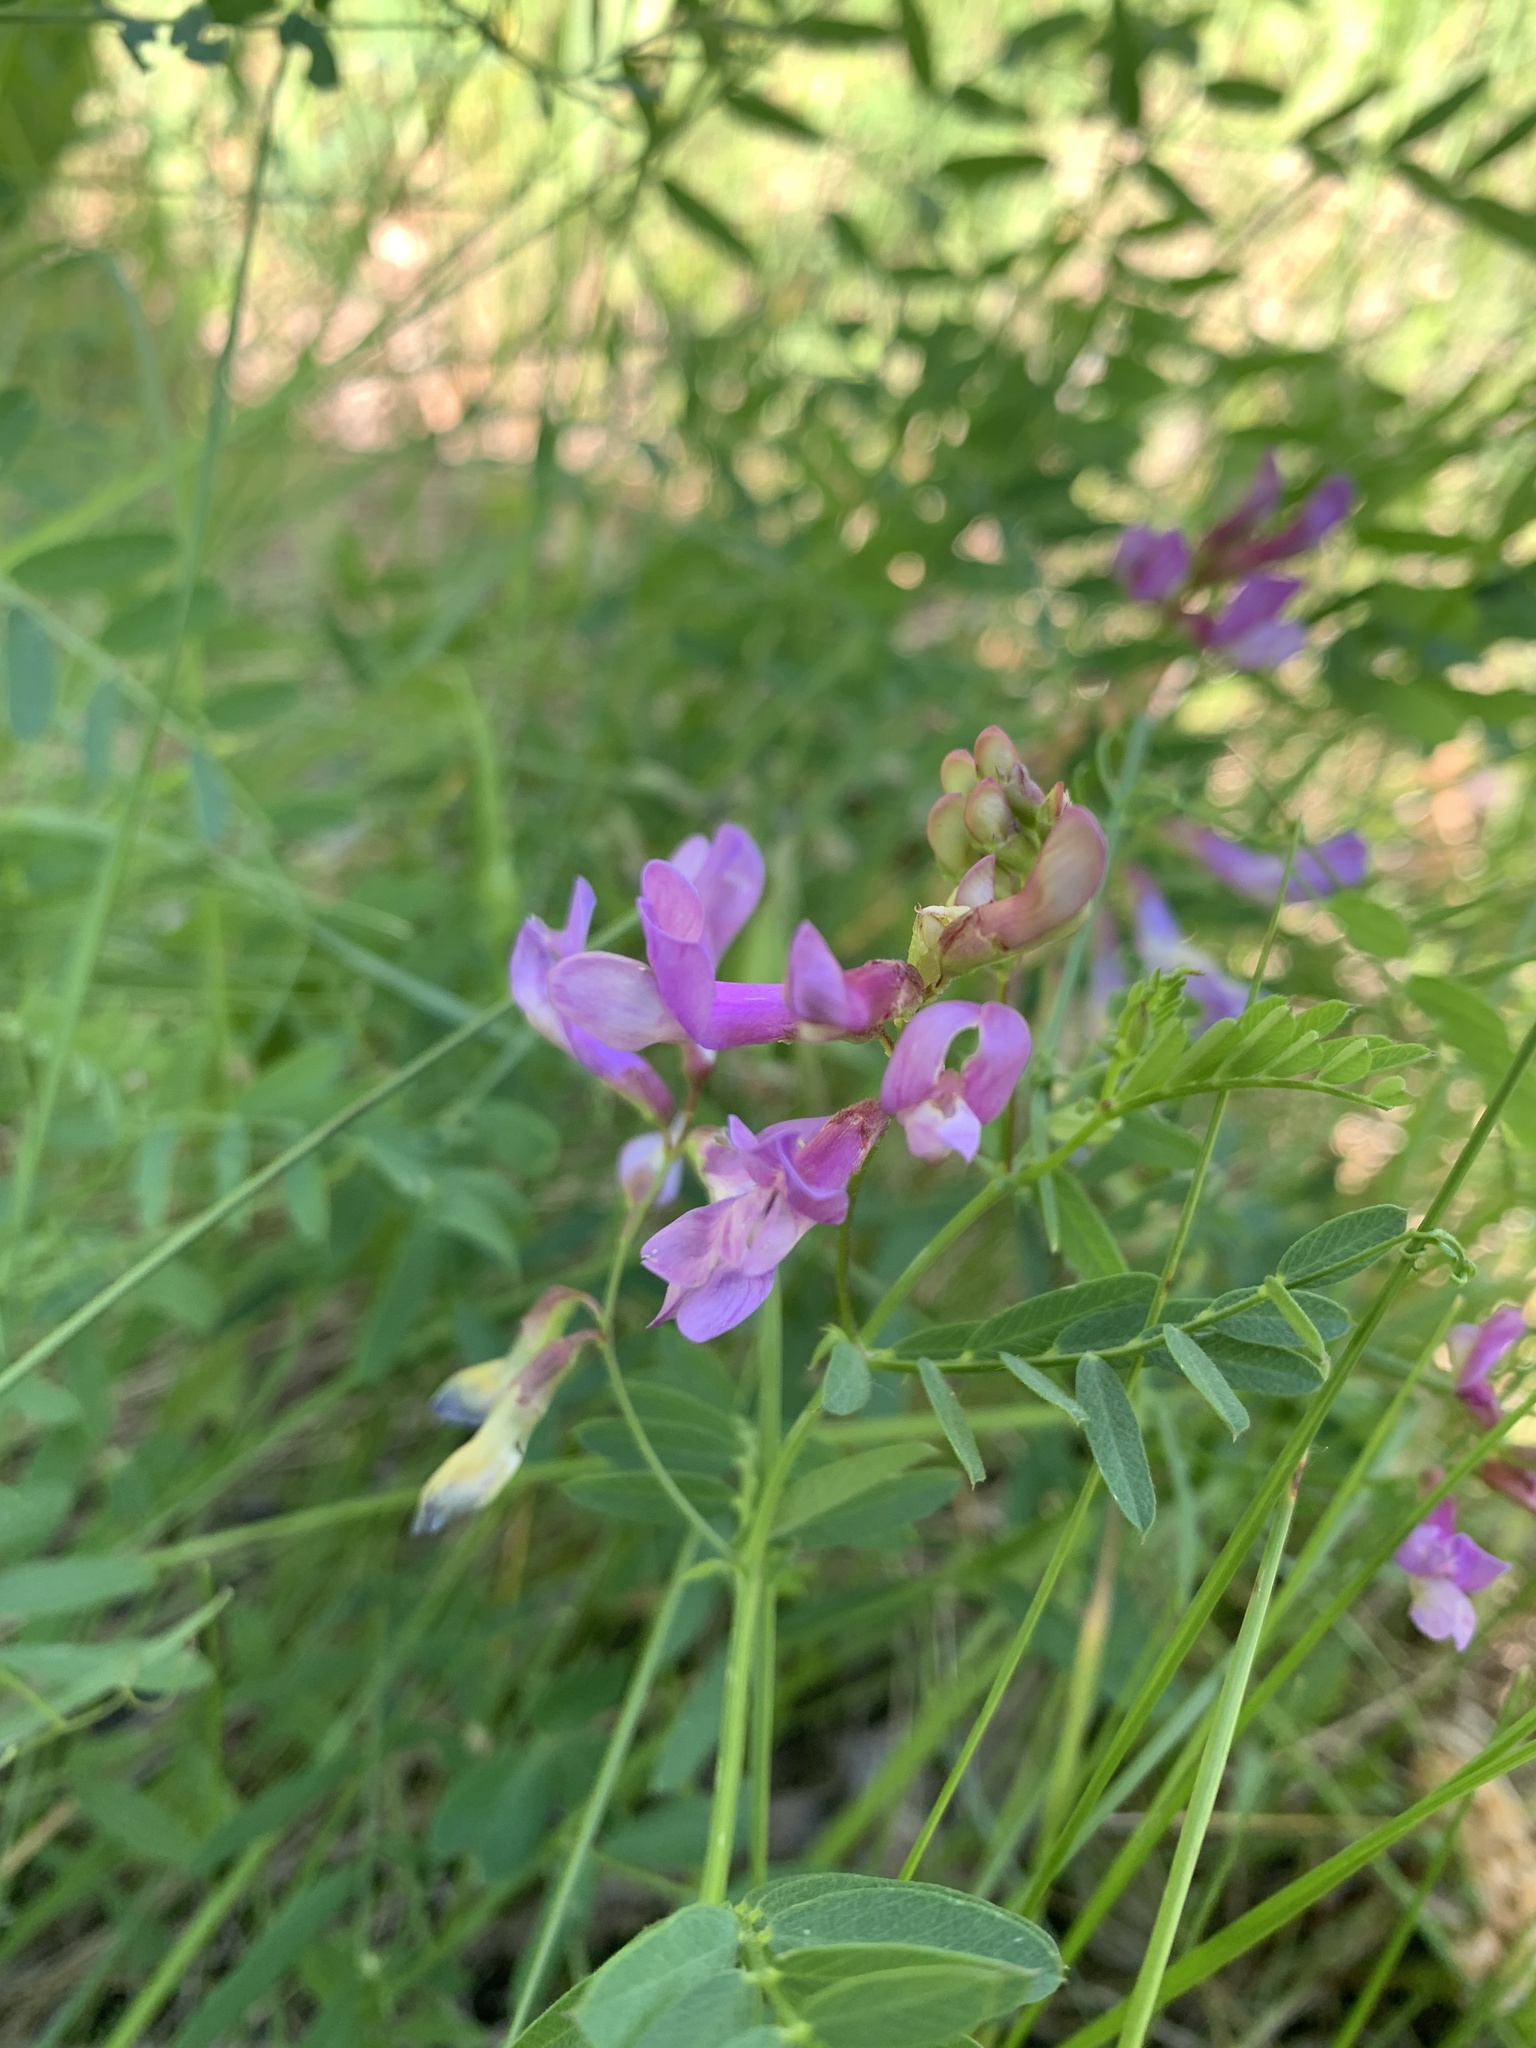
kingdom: Plantae
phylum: Tracheophyta
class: Magnoliopsida
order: Fabales
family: Fabaceae
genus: Vicia
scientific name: Vicia americana
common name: American vetch
